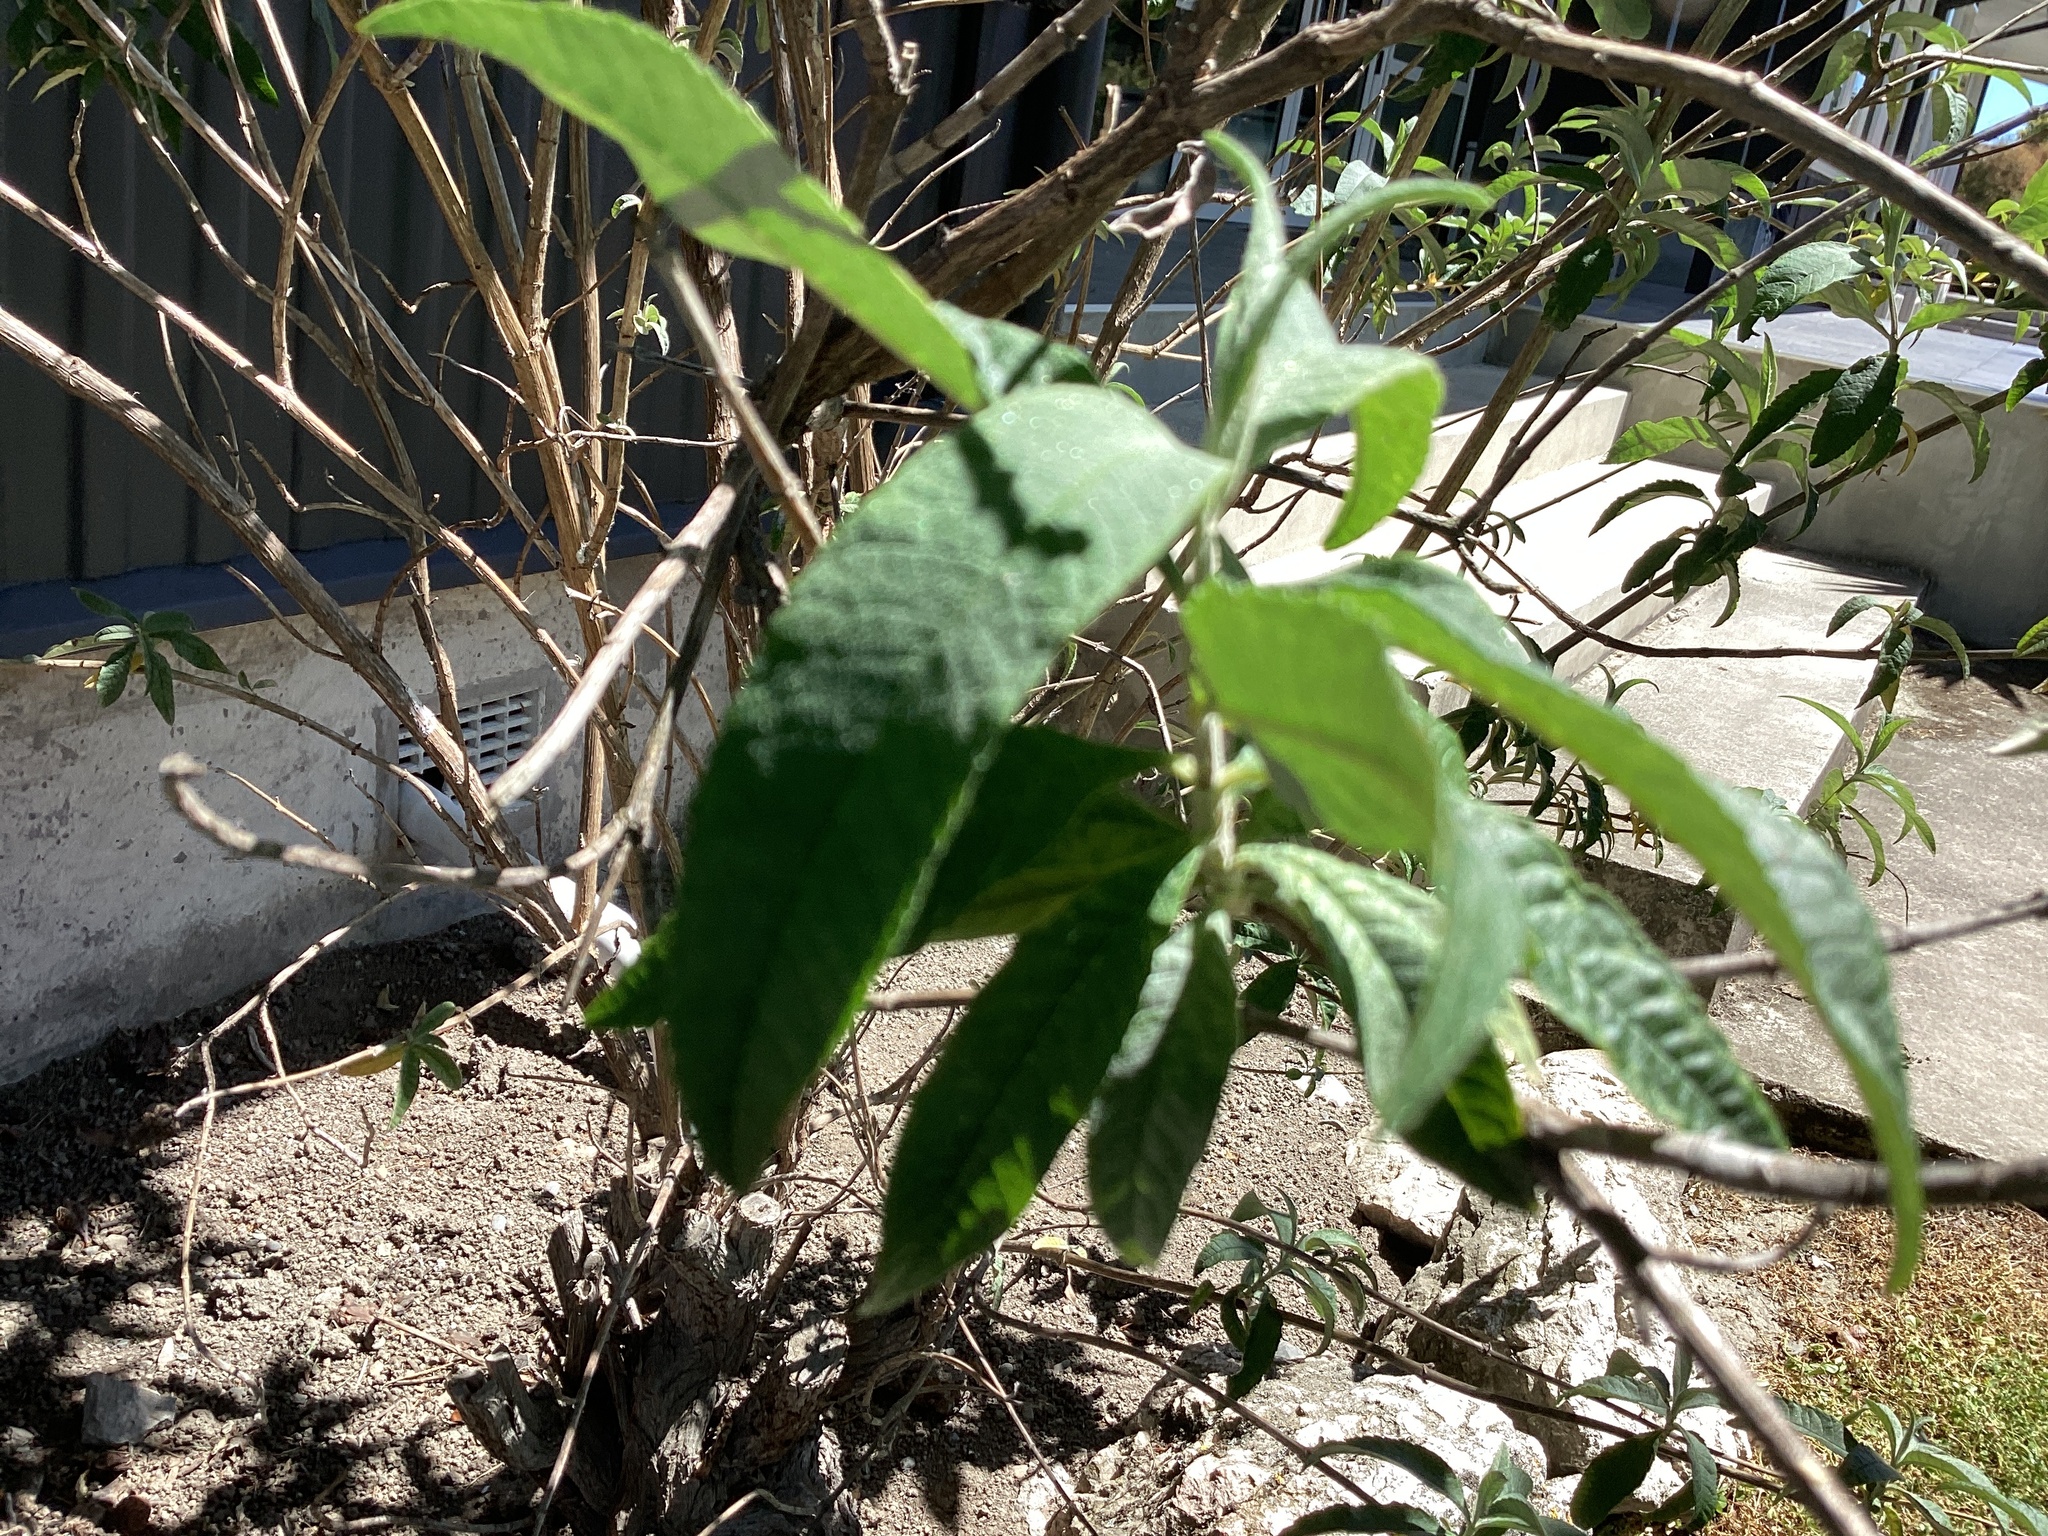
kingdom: Plantae
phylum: Tracheophyta
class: Magnoliopsida
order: Lamiales
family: Scrophulariaceae
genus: Buddleja
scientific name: Buddleja davidii
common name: Butterfly-bush
